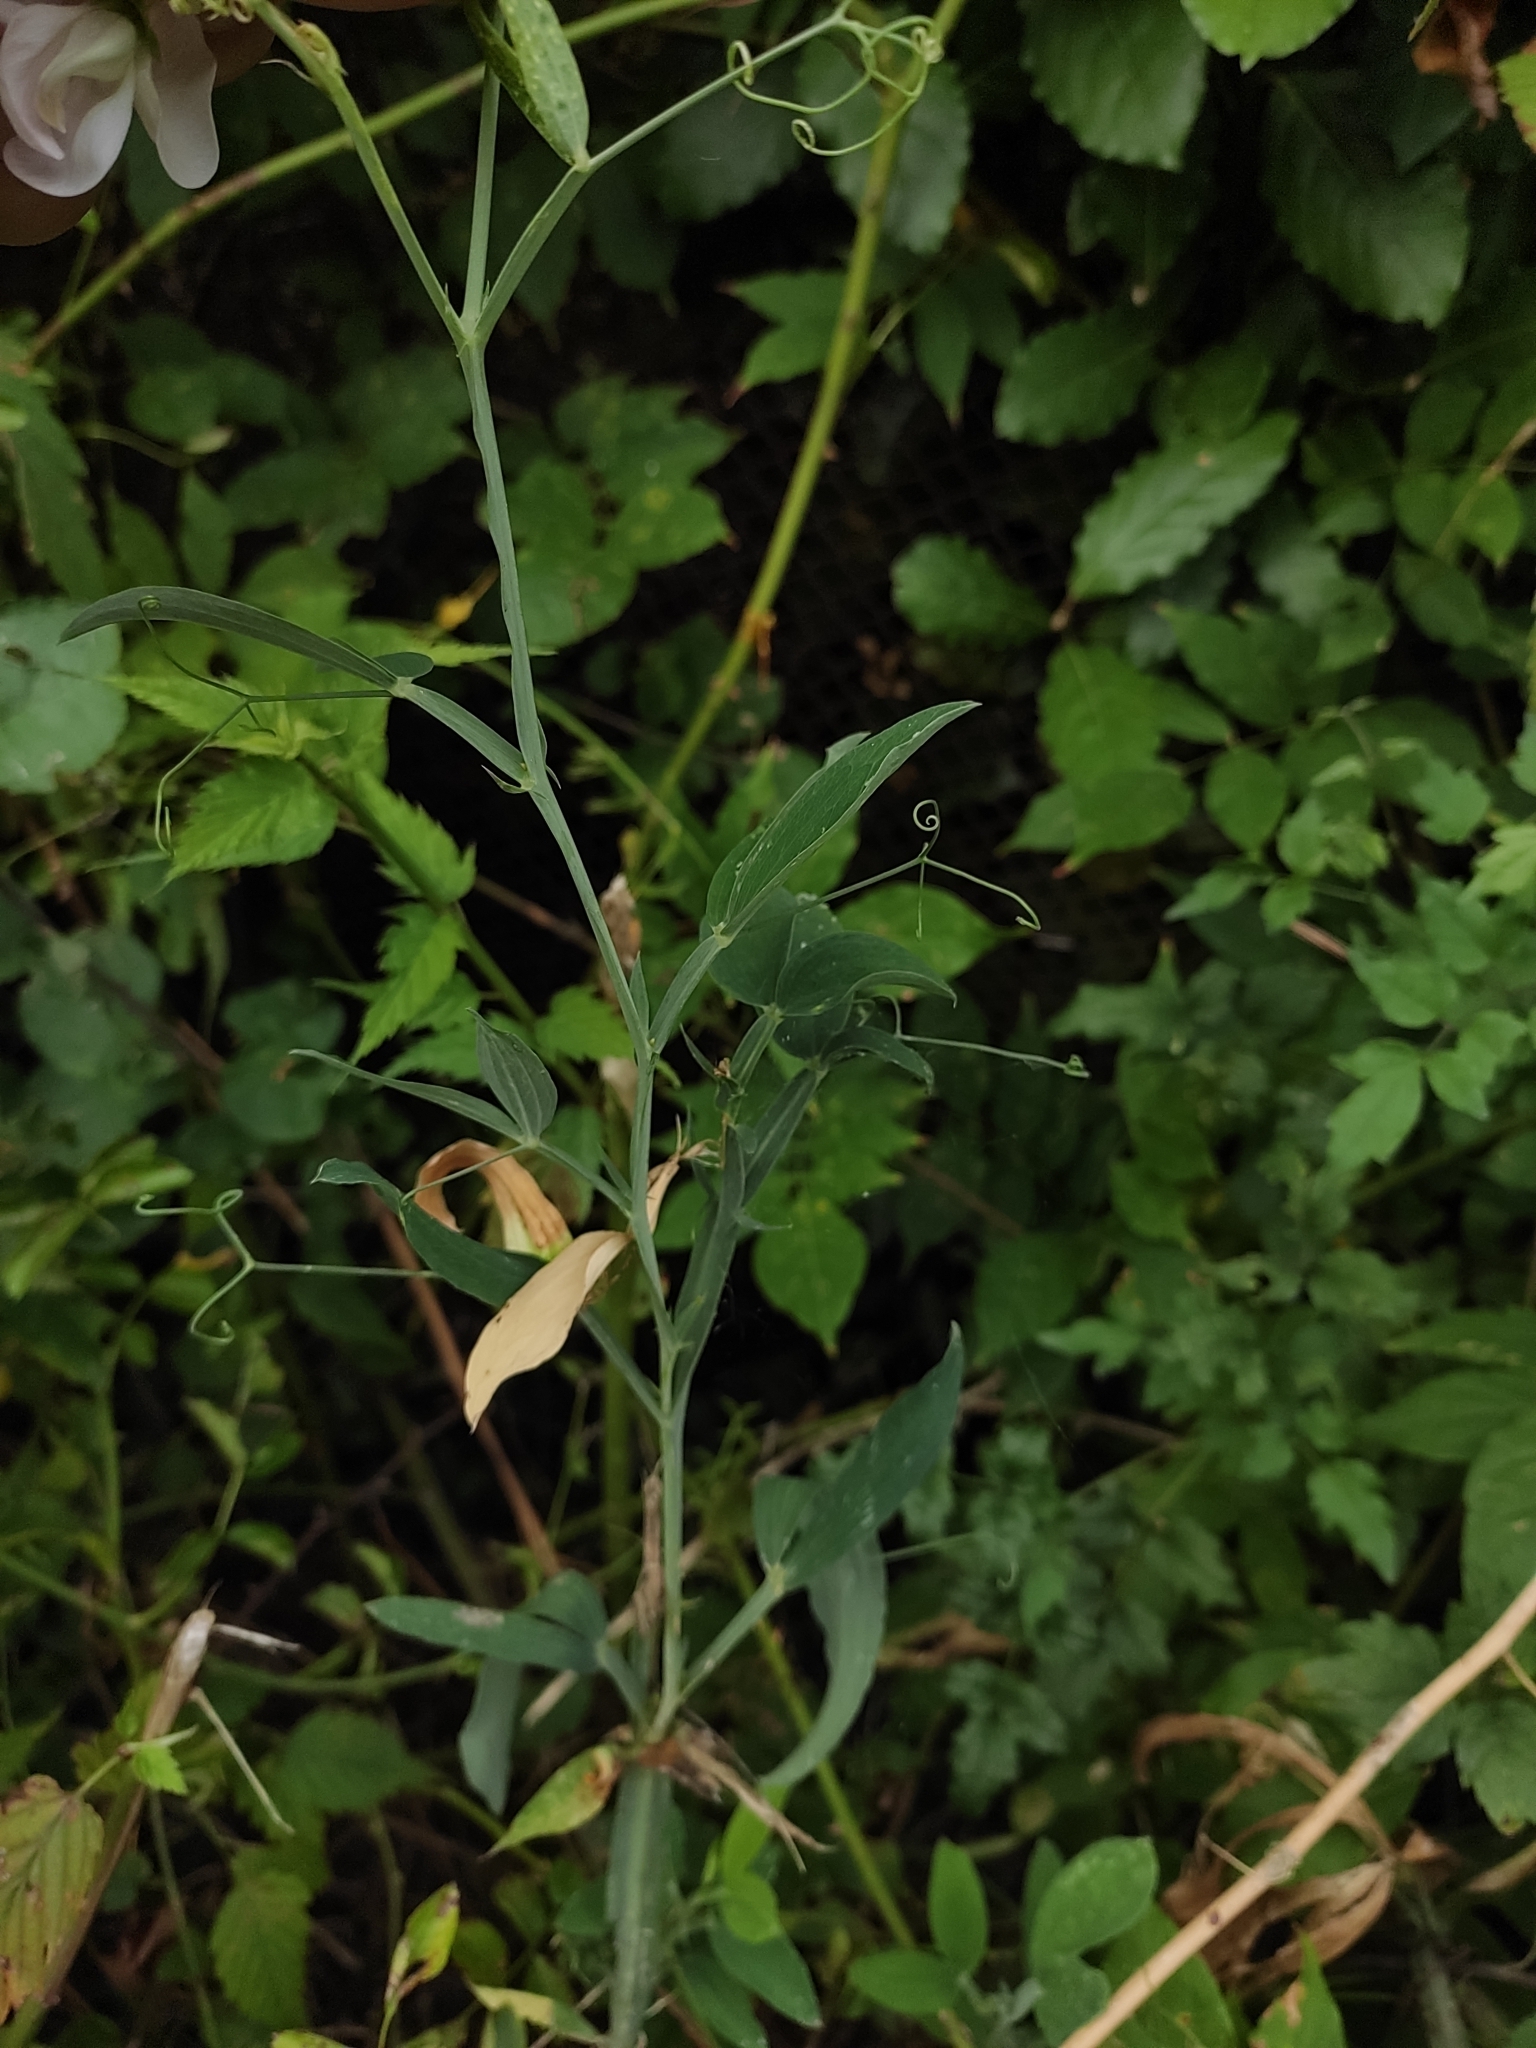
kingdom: Plantae
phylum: Tracheophyta
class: Magnoliopsida
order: Fabales
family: Fabaceae
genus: Lathyrus
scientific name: Lathyrus latifolius
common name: Perennial pea
